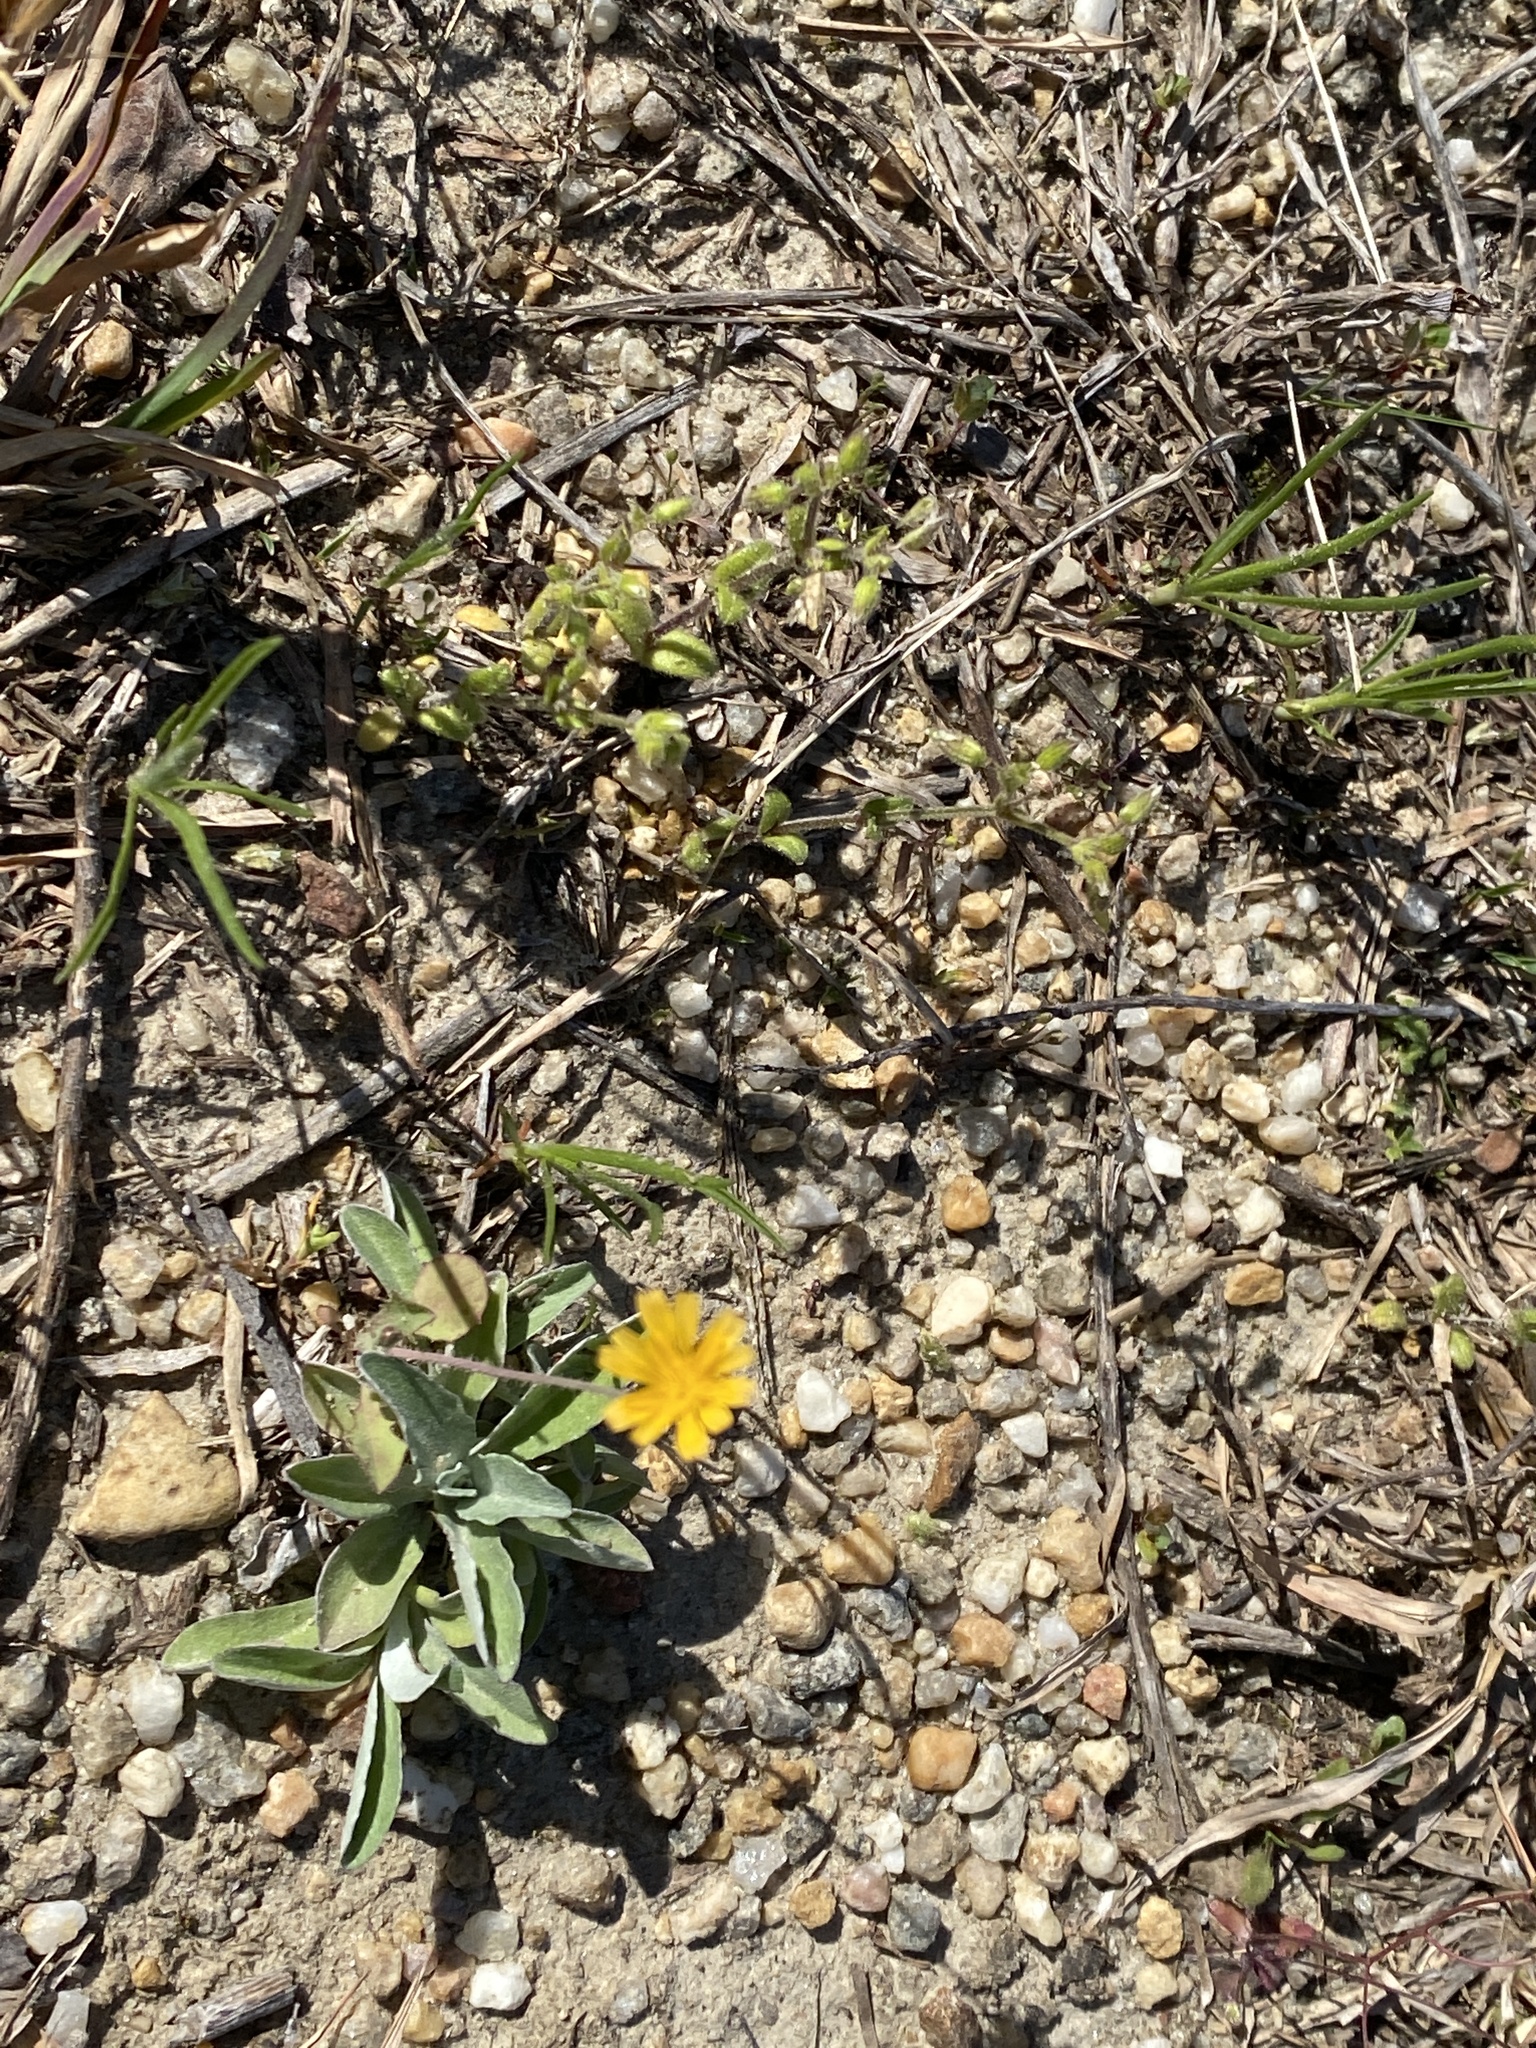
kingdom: Plantae
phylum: Tracheophyta
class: Magnoliopsida
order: Asterales
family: Asteraceae
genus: Krigia
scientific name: Krigia virginica
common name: Virginia dwarf-dandelion
